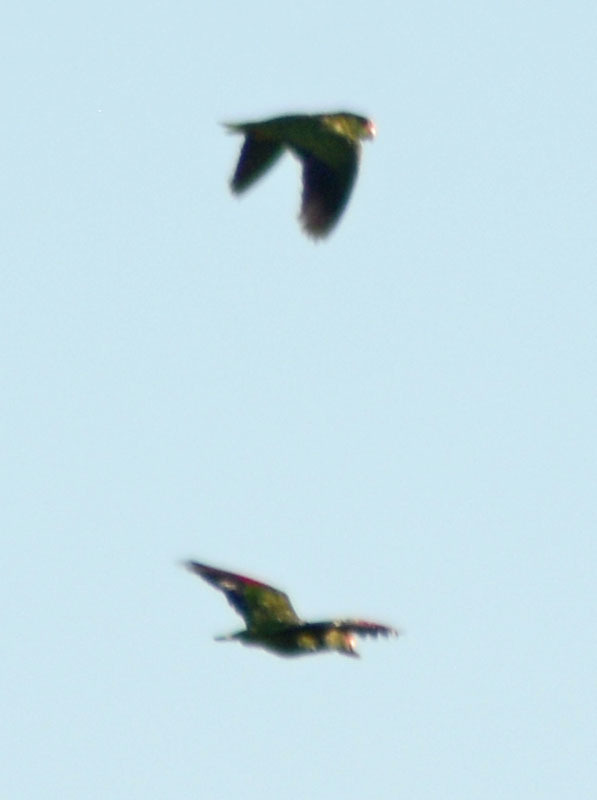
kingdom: Animalia
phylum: Chordata
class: Aves
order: Psittaciformes
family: Psittacidae
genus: Amazona
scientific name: Amazona albifrons
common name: White-fronted amazon
